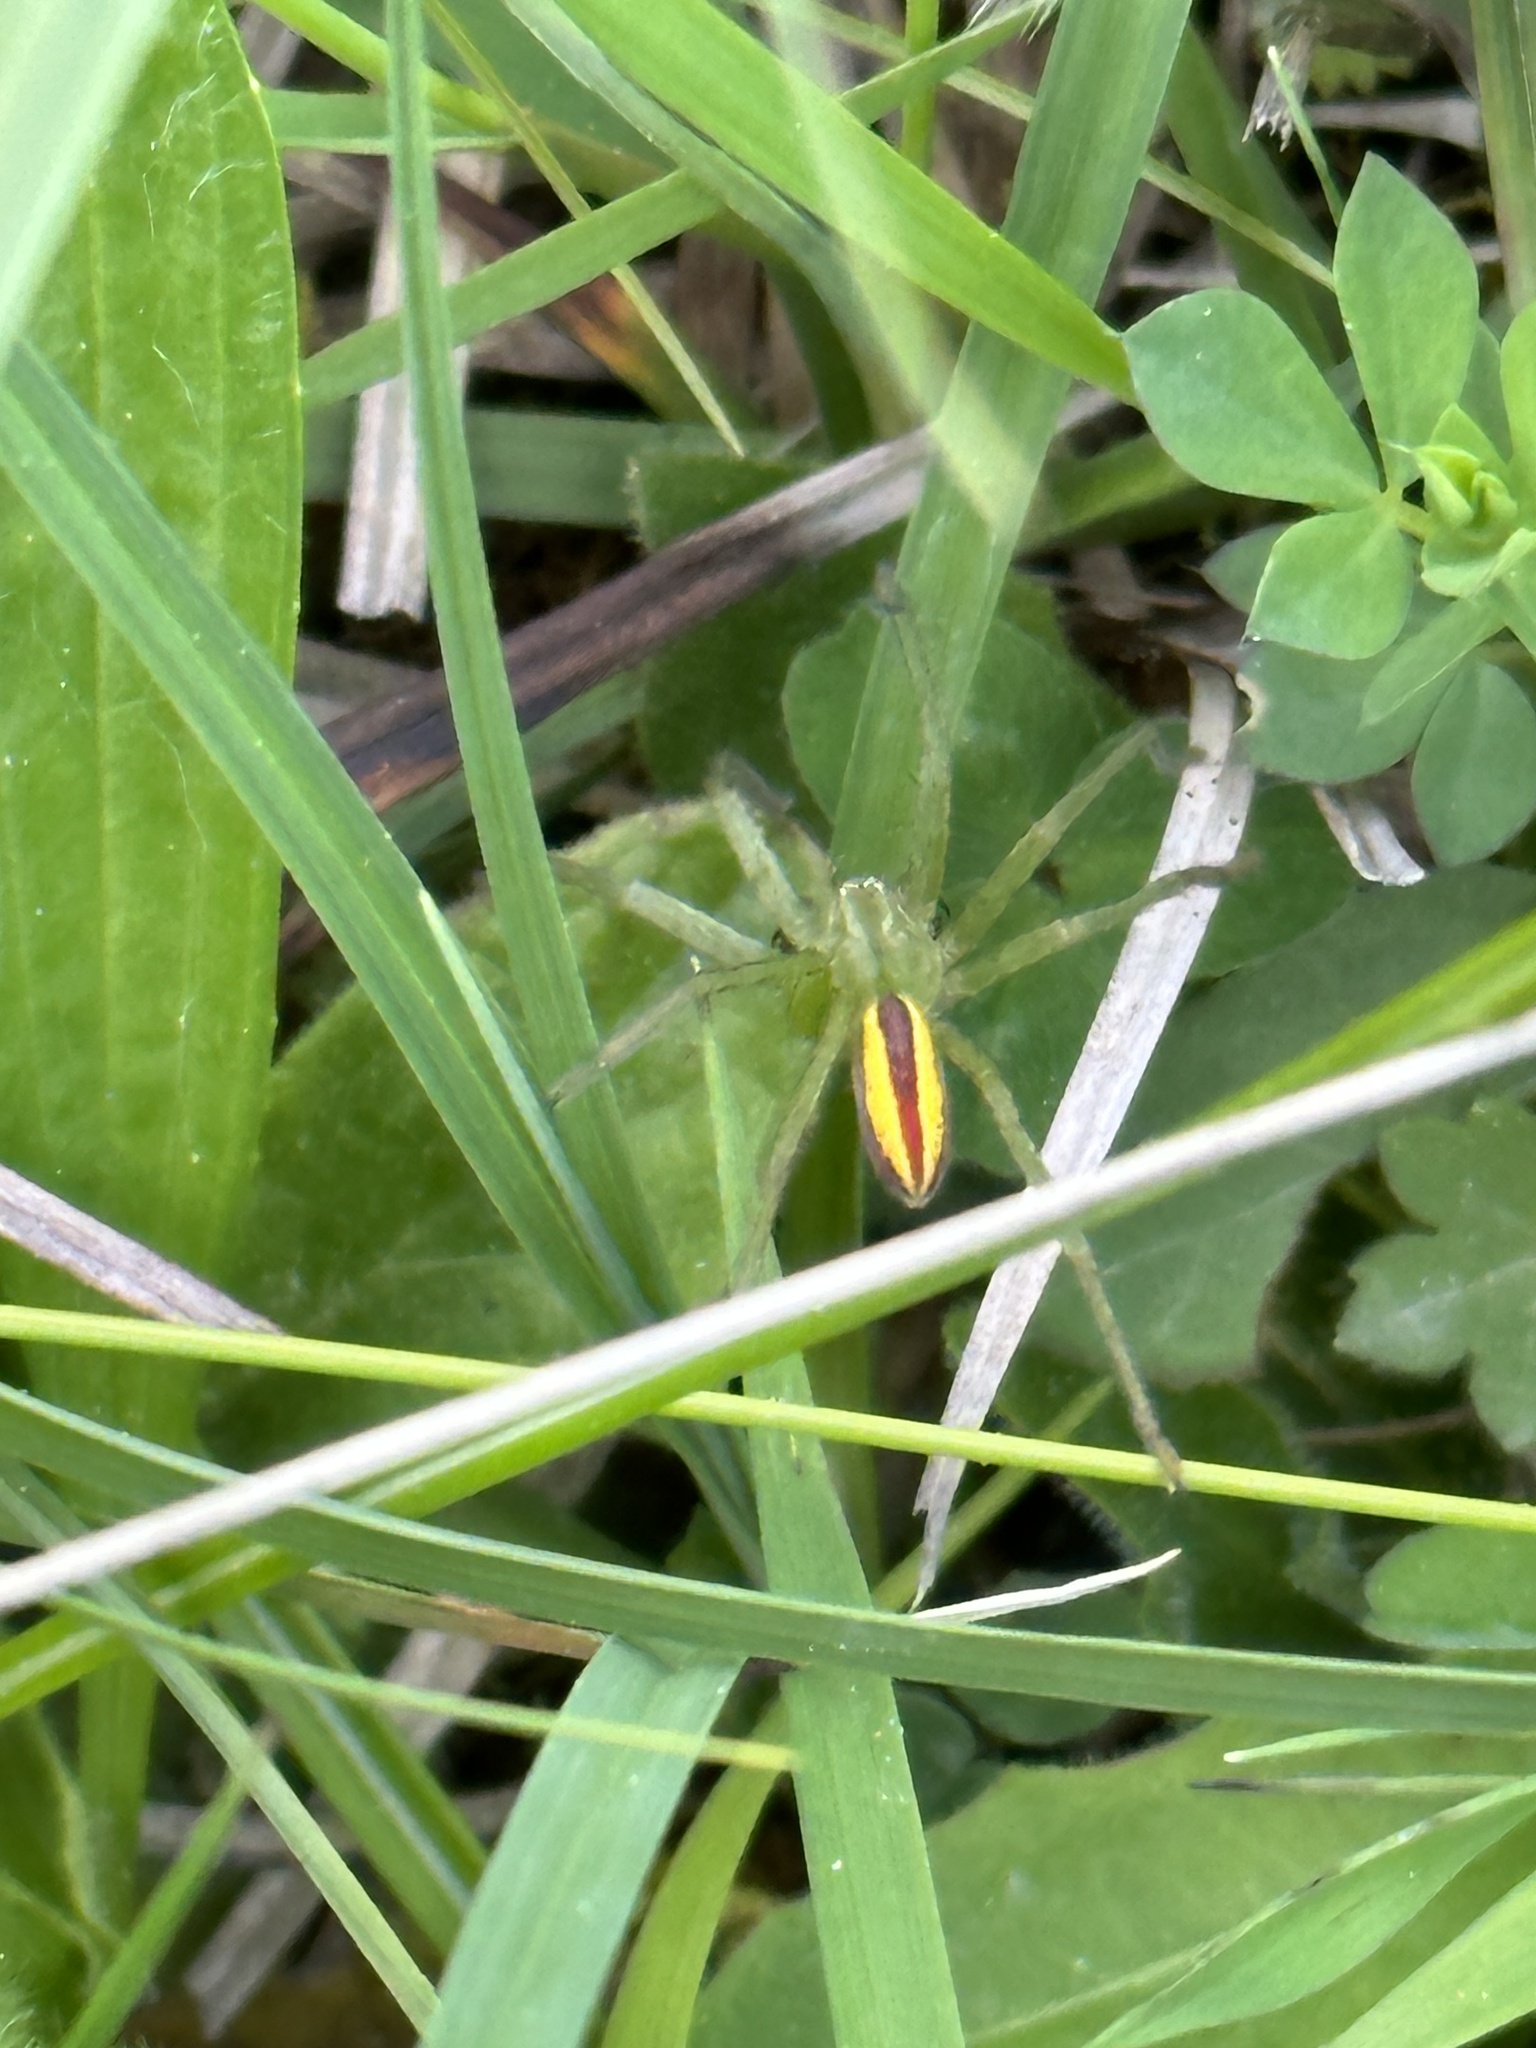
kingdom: Animalia
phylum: Arthropoda
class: Arachnida
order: Araneae
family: Sparassidae
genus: Micrommata
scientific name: Micrommata virescens
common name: Green spider
